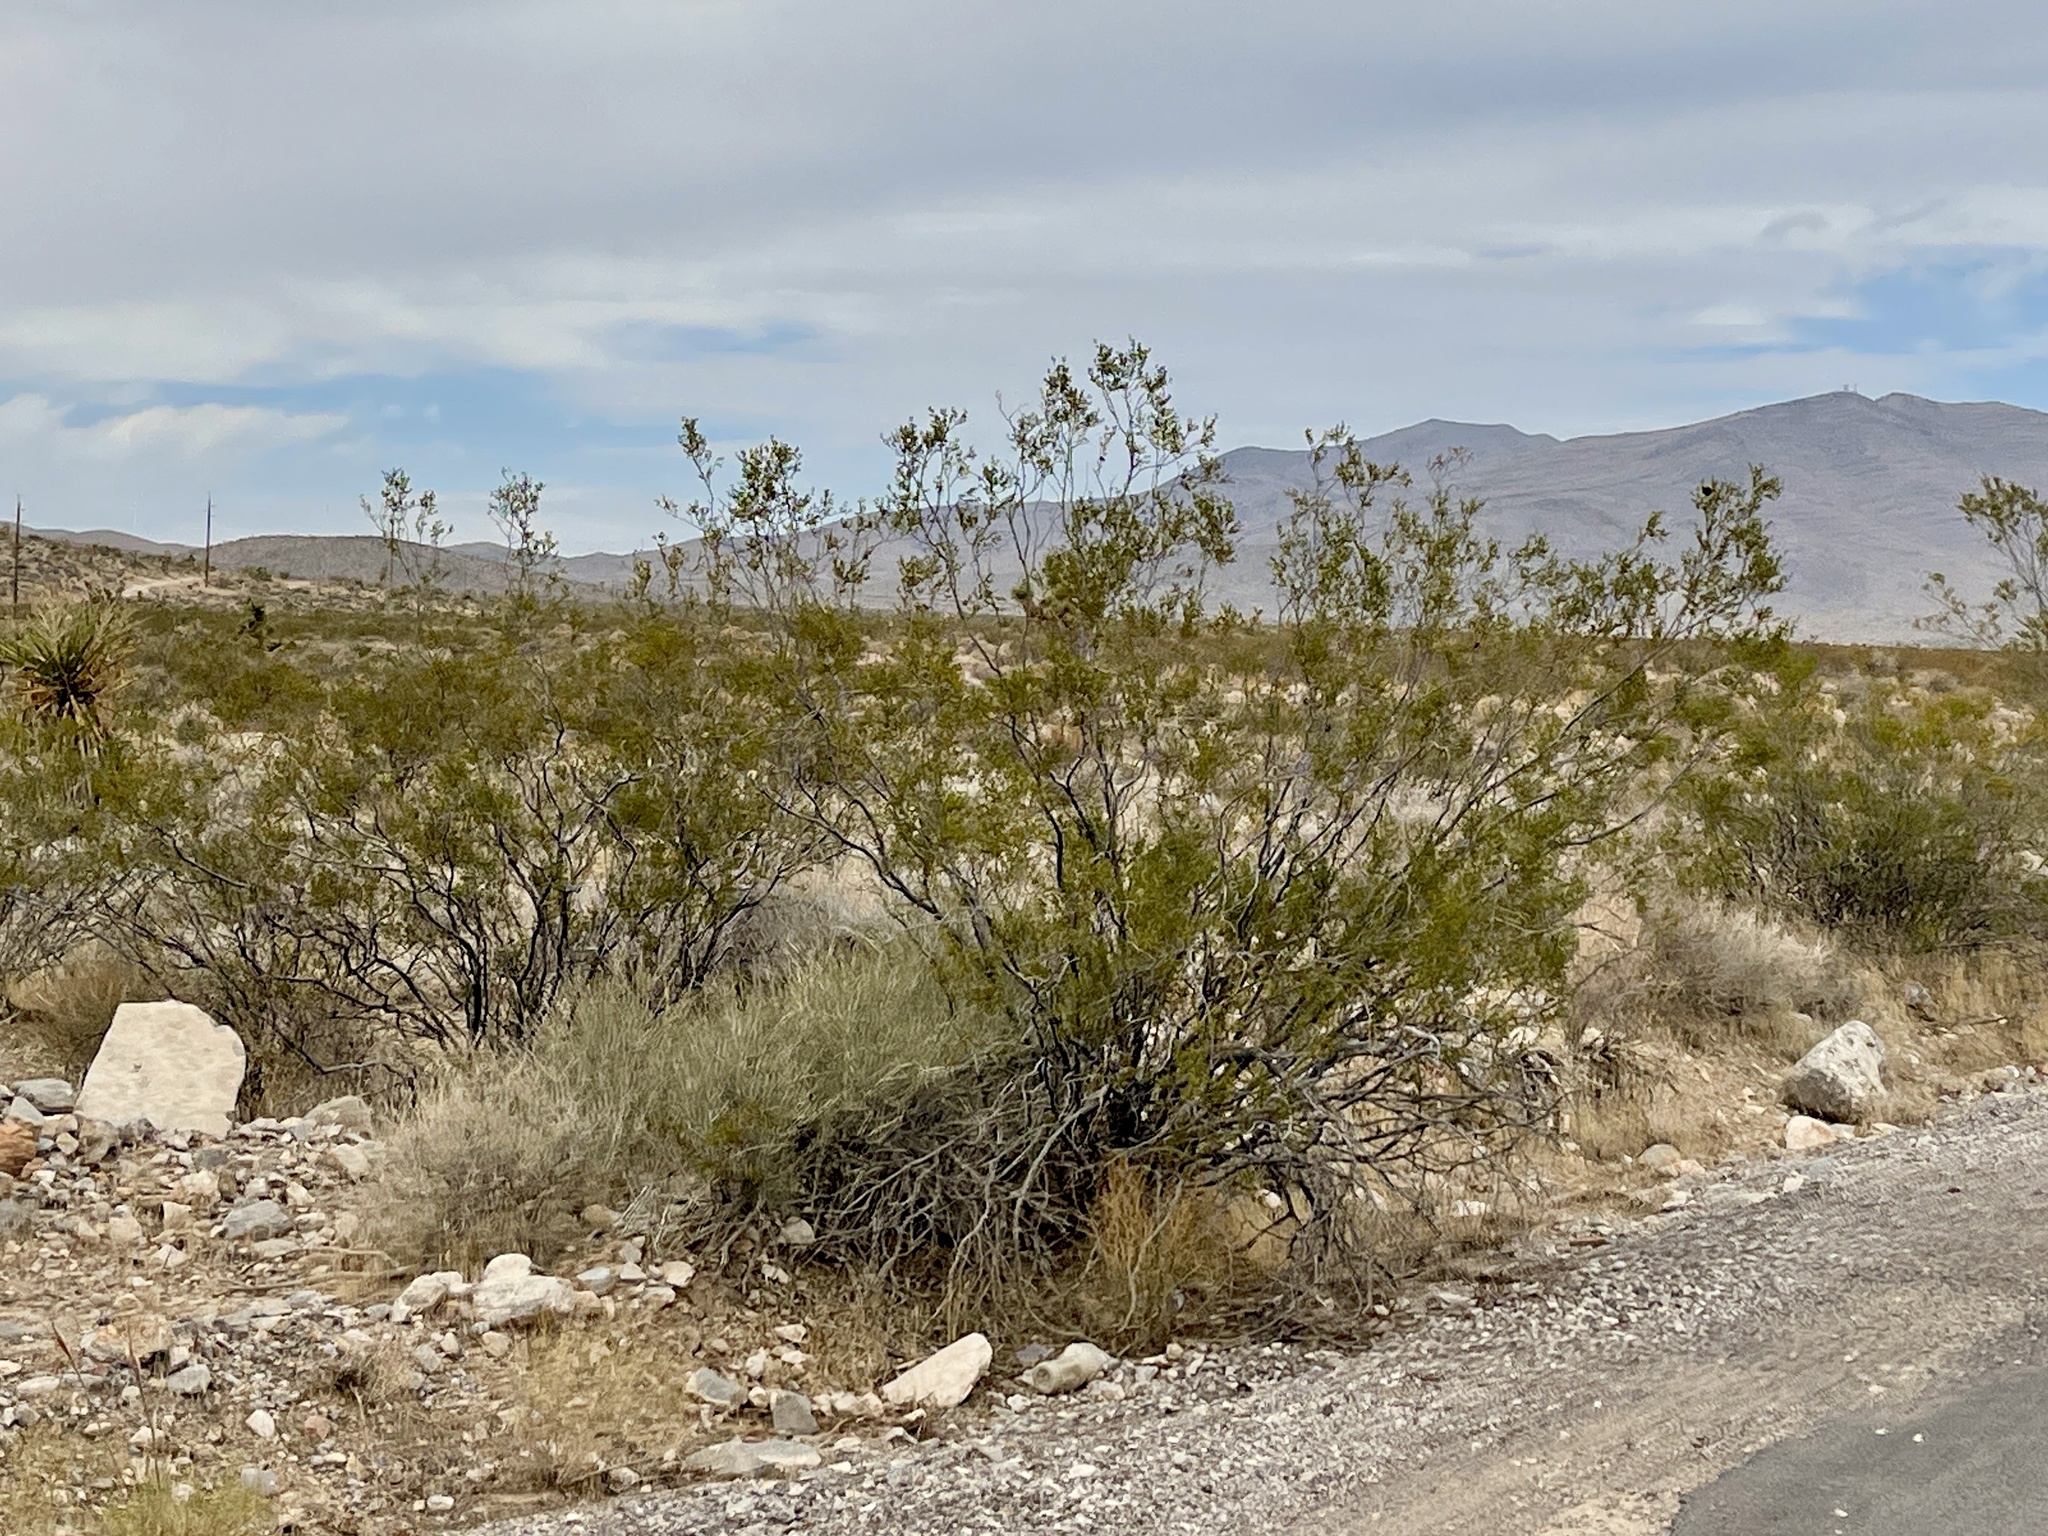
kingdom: Plantae
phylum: Tracheophyta
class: Magnoliopsida
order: Zygophyllales
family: Zygophyllaceae
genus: Larrea
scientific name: Larrea tridentata
